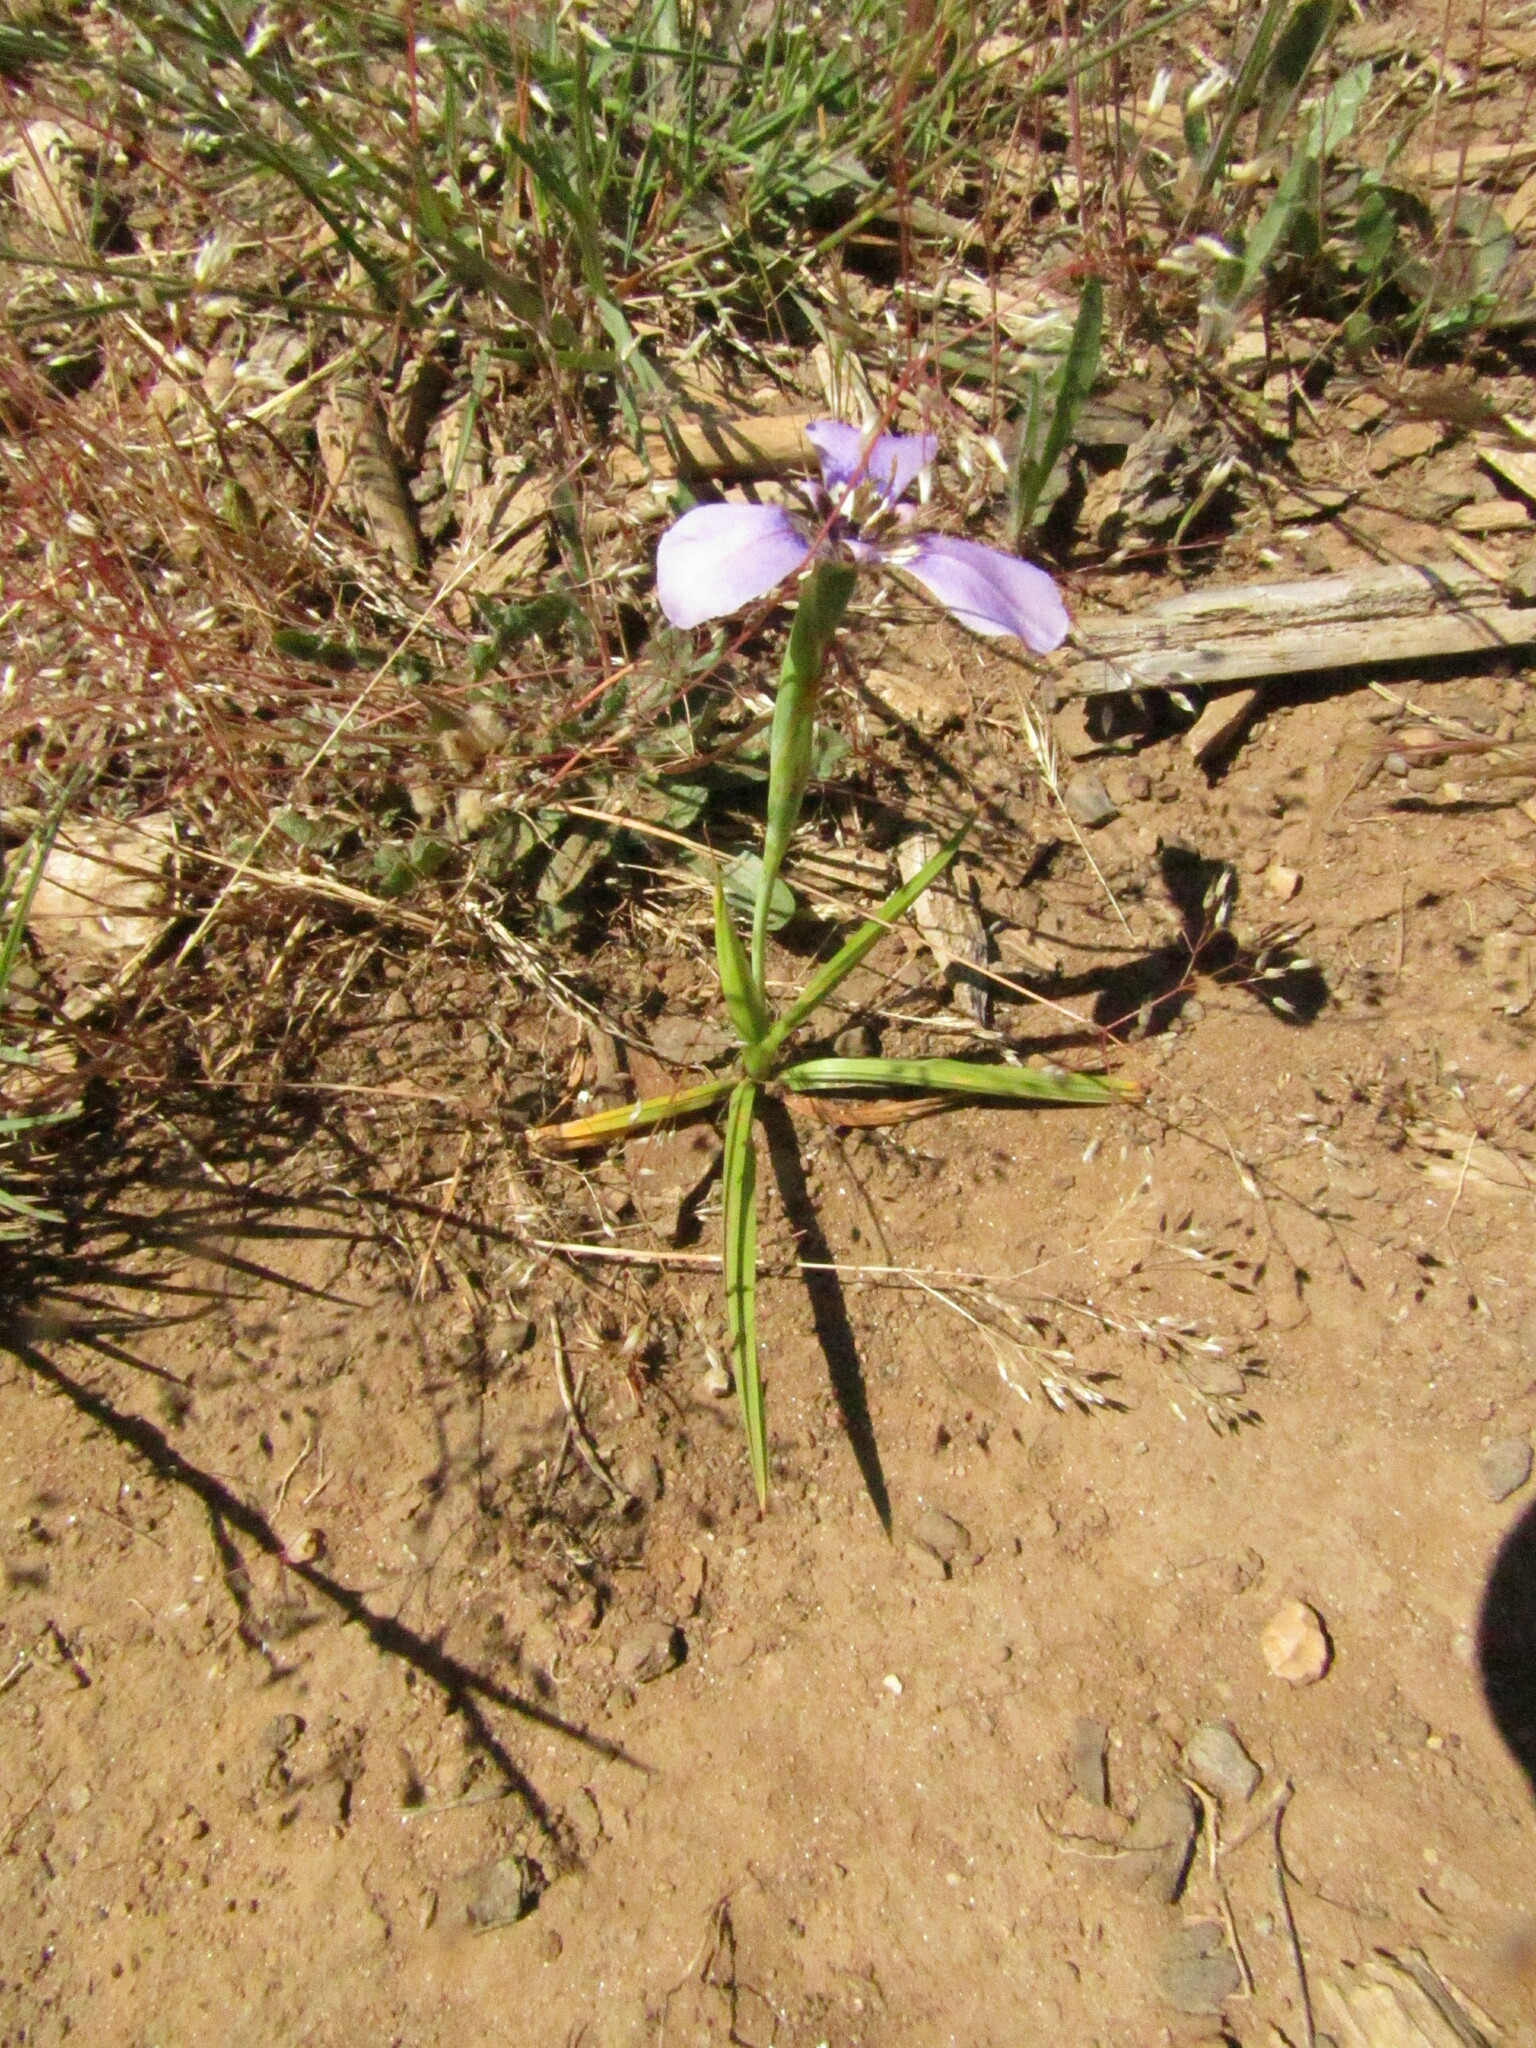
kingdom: Plantae
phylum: Tracheophyta
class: Liliopsida
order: Asparagales
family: Iridaceae
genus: Herbertia
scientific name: Herbertia lahue
